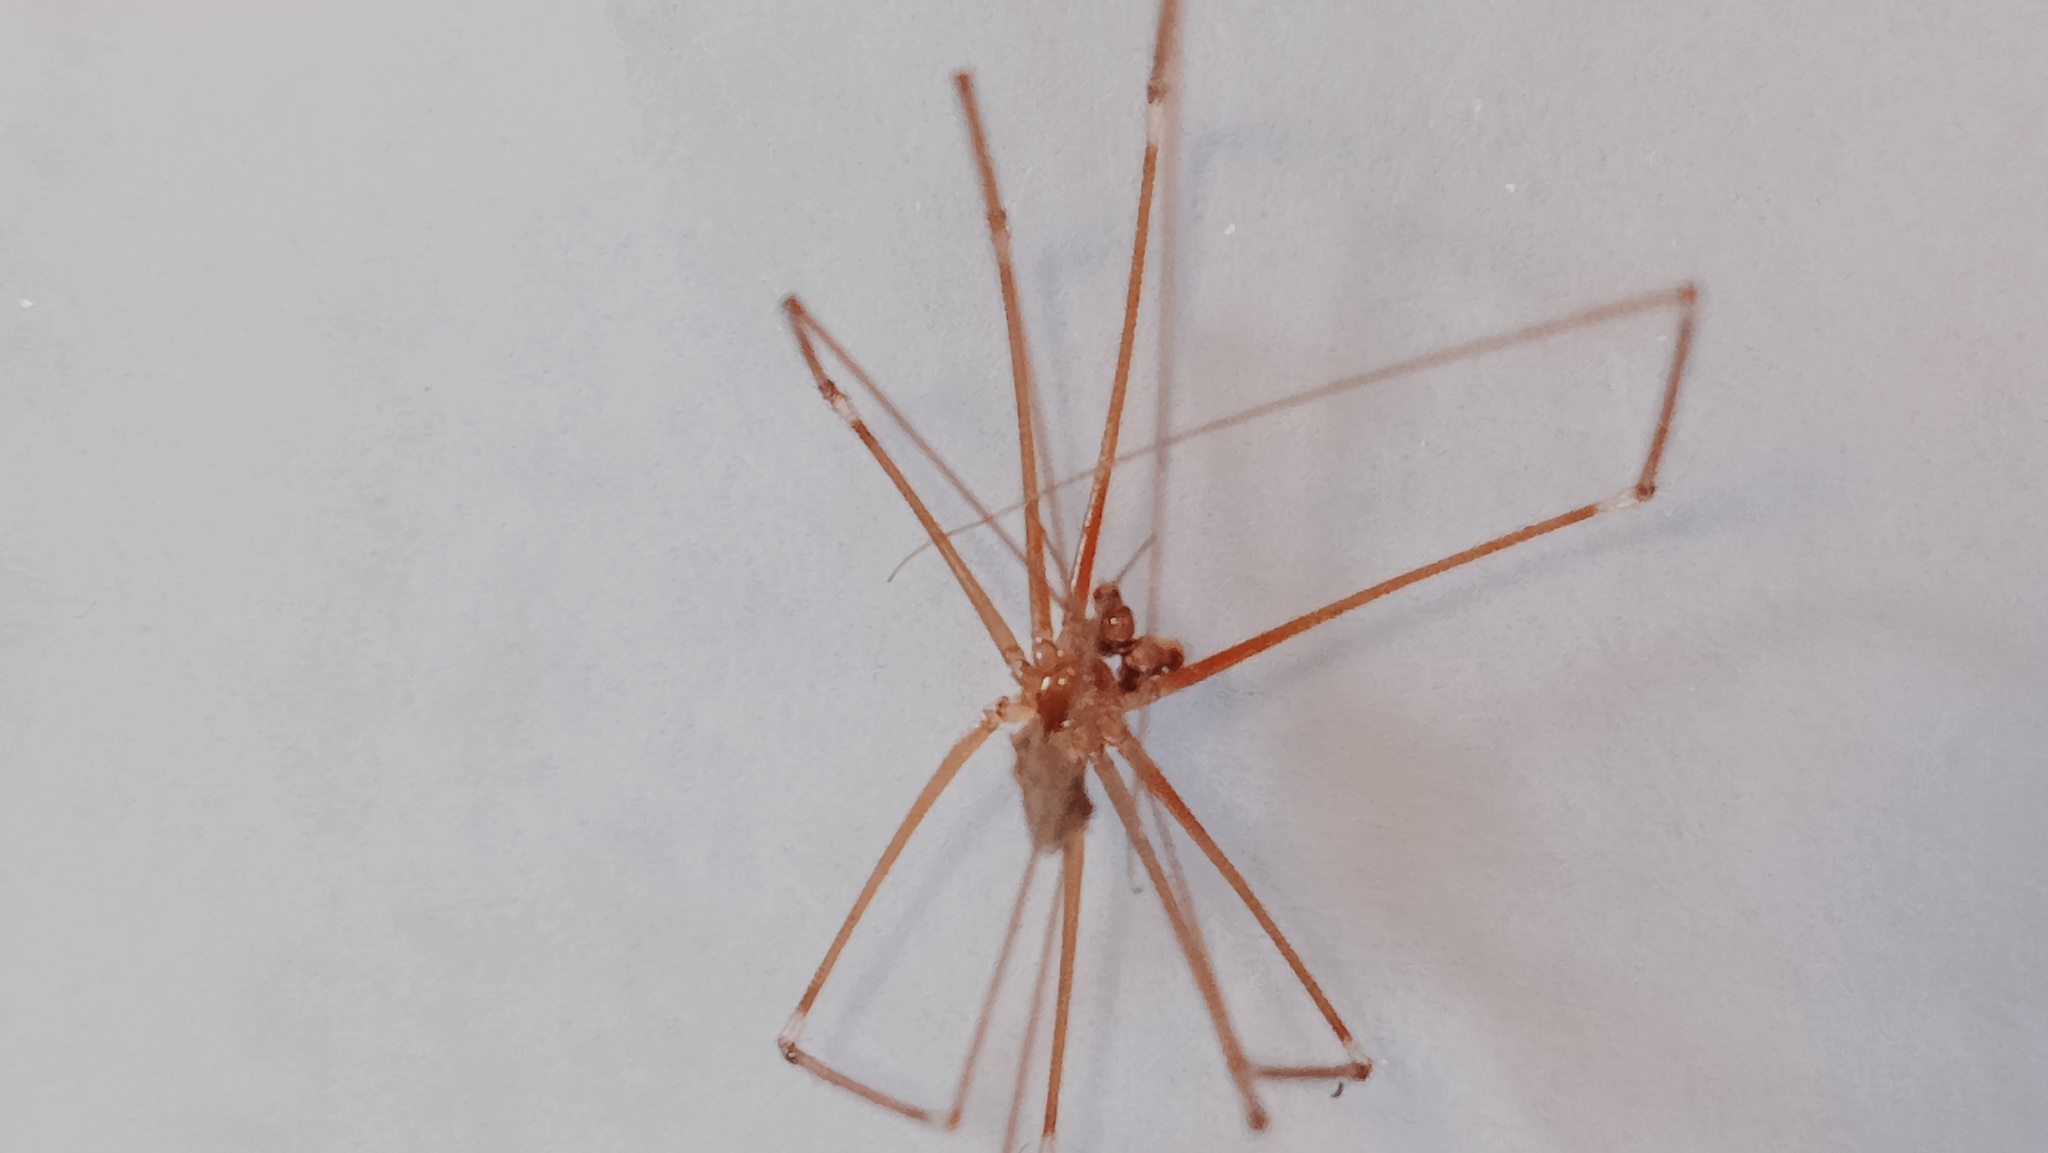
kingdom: Animalia
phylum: Arthropoda
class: Arachnida
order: Araneae
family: Pholcidae
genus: Pholcus
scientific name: Pholcus phalangioides
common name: Longbodied cellar spider
